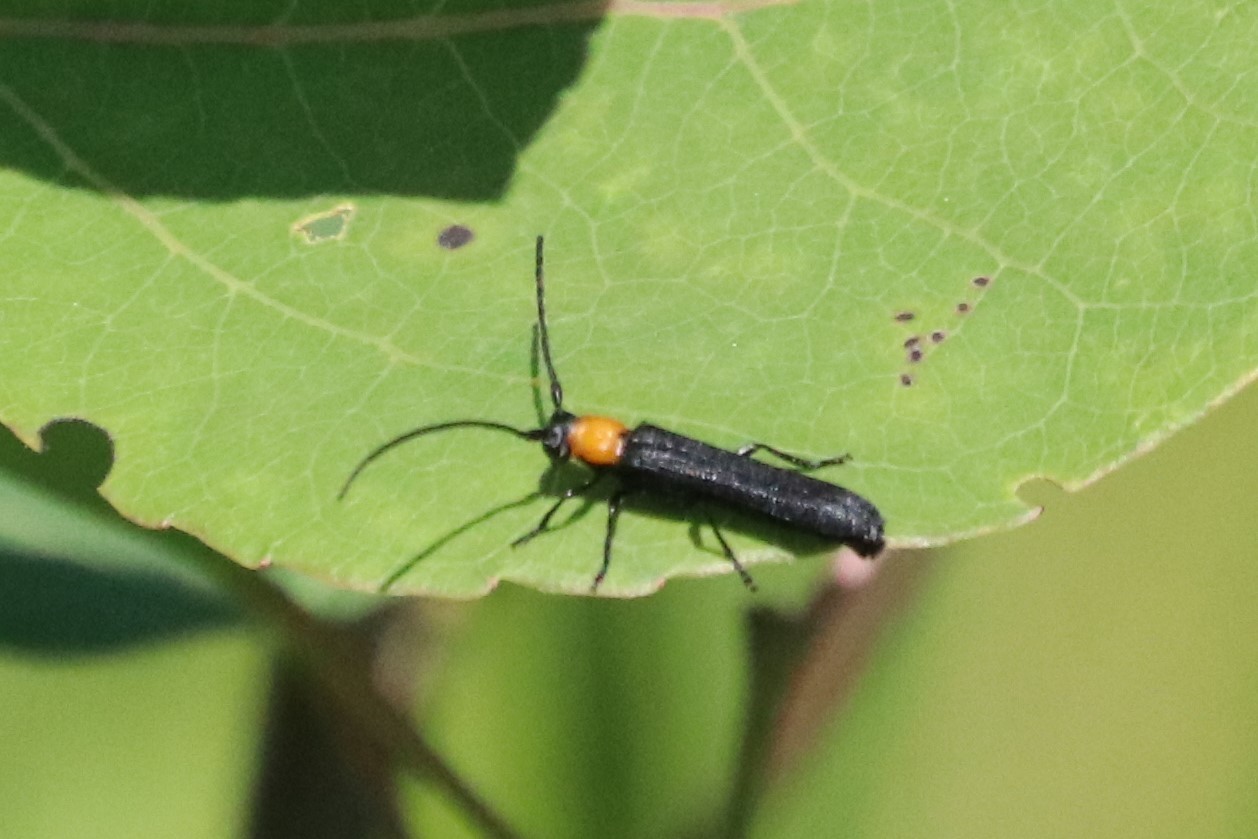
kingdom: Animalia
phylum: Arthropoda
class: Insecta
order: Coleoptera
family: Cerambycidae
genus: Oberea
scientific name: Oberea affinis
